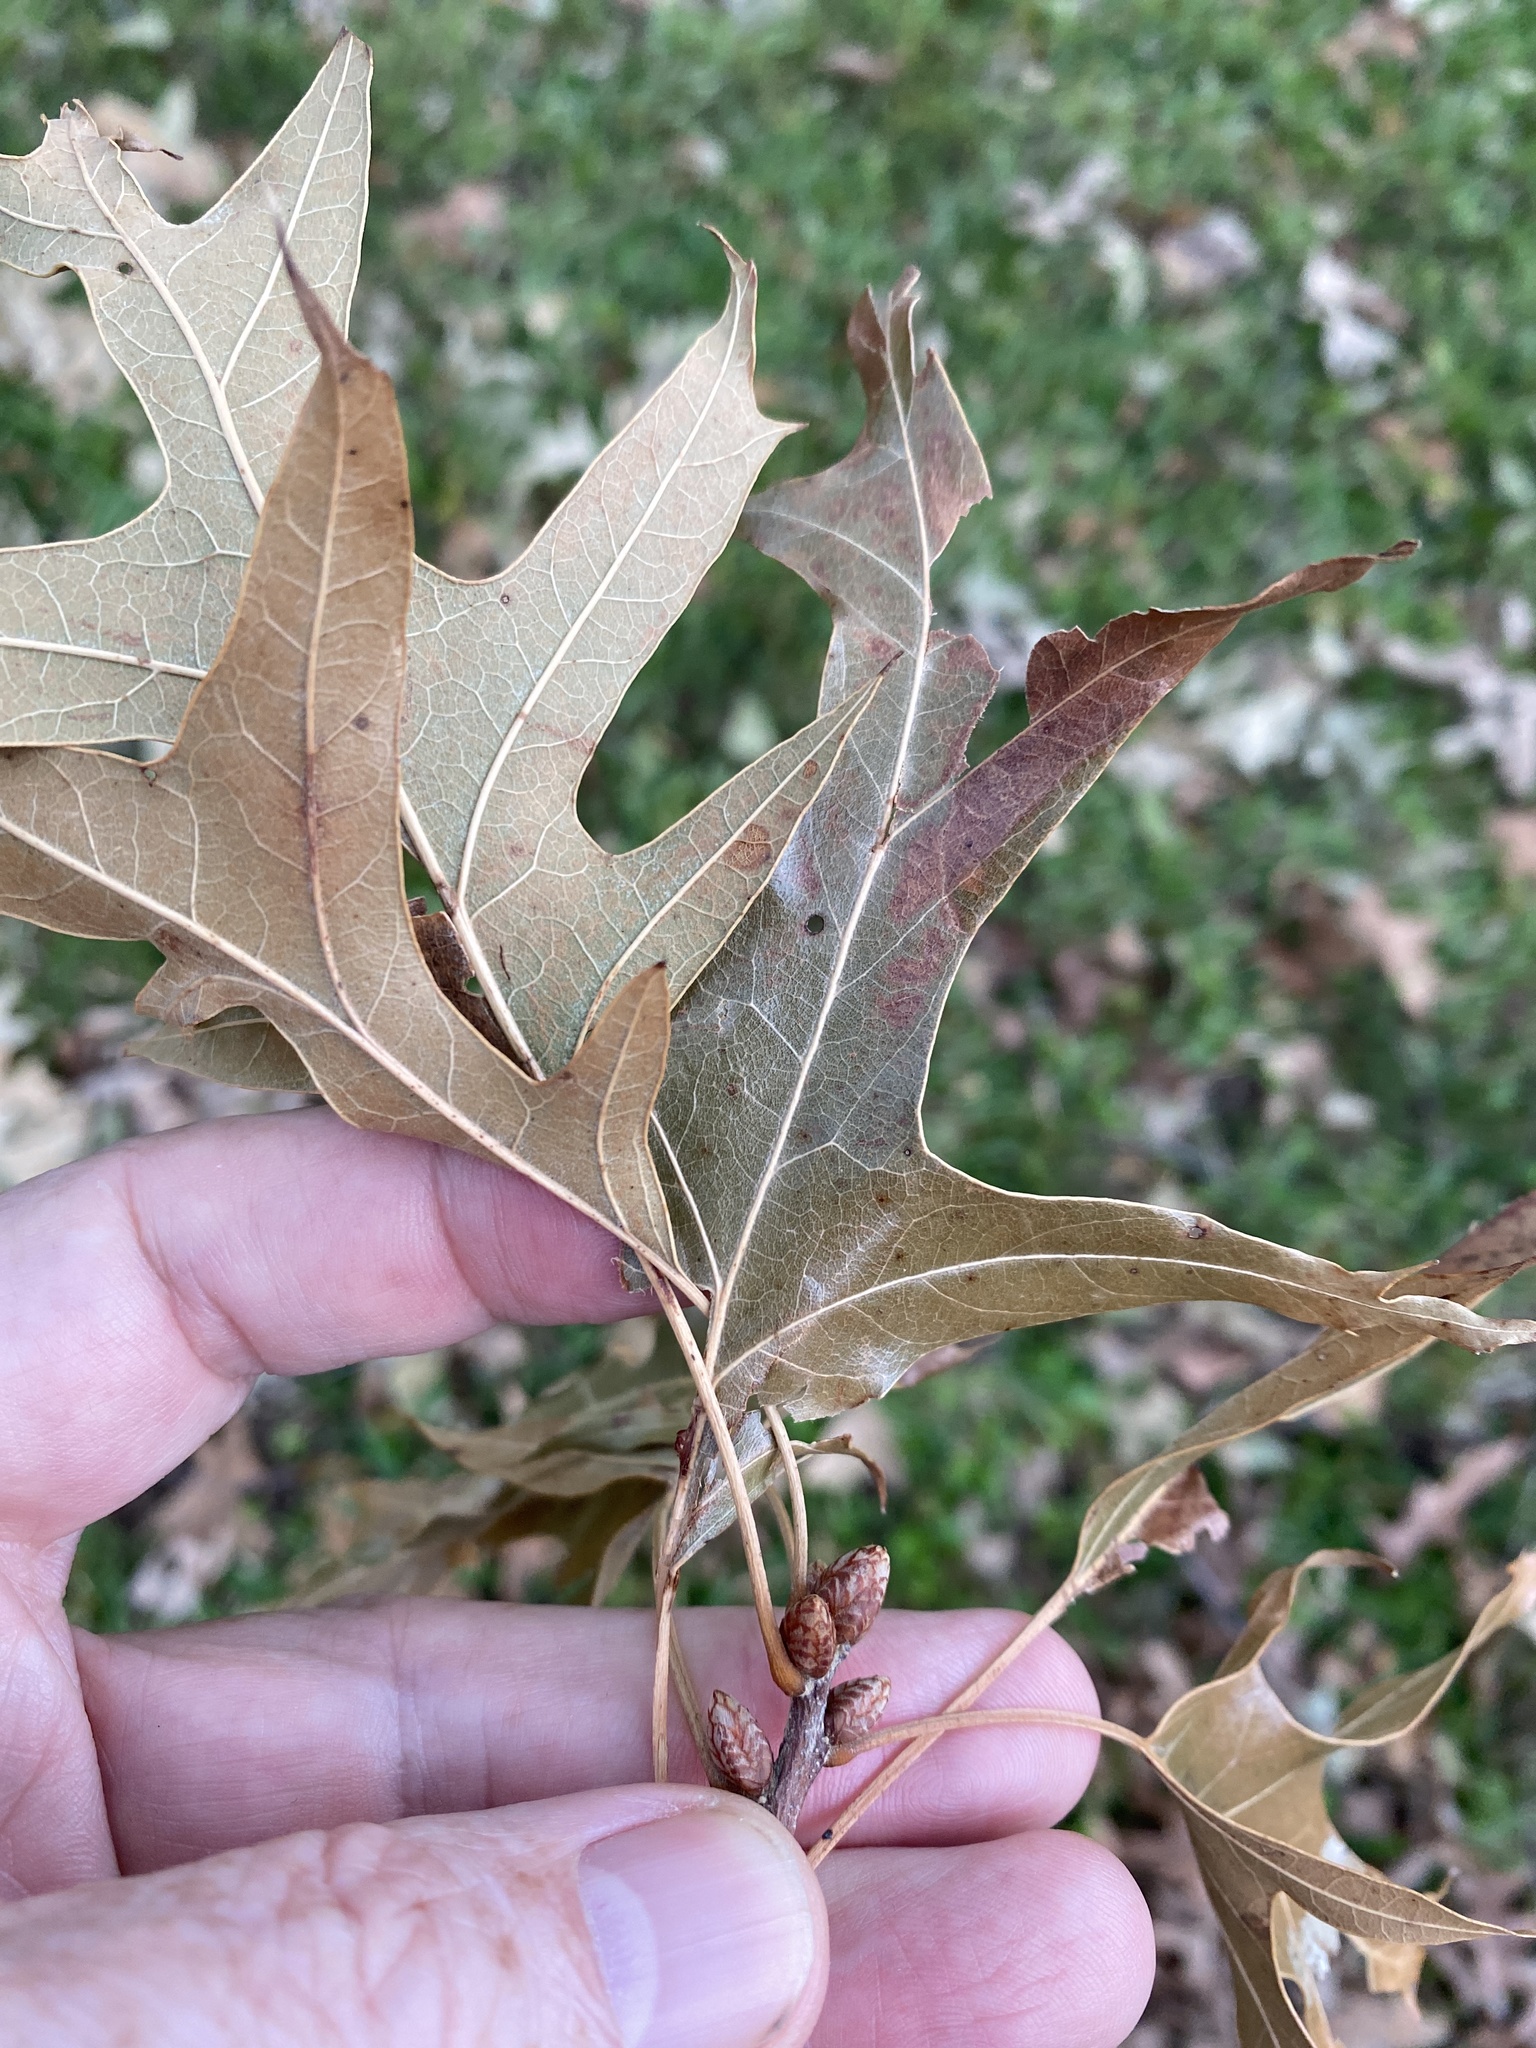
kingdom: Plantae
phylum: Tracheophyta
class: Magnoliopsida
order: Fagales
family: Fagaceae
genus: Quercus
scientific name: Quercus pagoda
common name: Cherrybark oak
